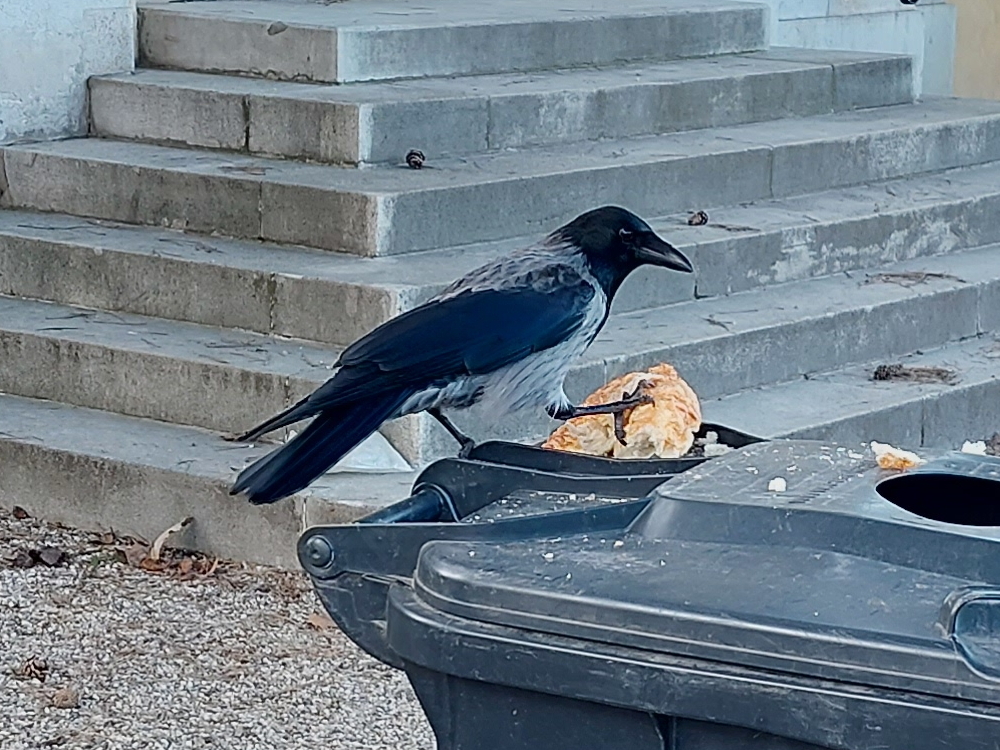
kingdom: Animalia
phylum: Chordata
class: Aves
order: Passeriformes
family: Corvidae
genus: Corvus
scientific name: Corvus
